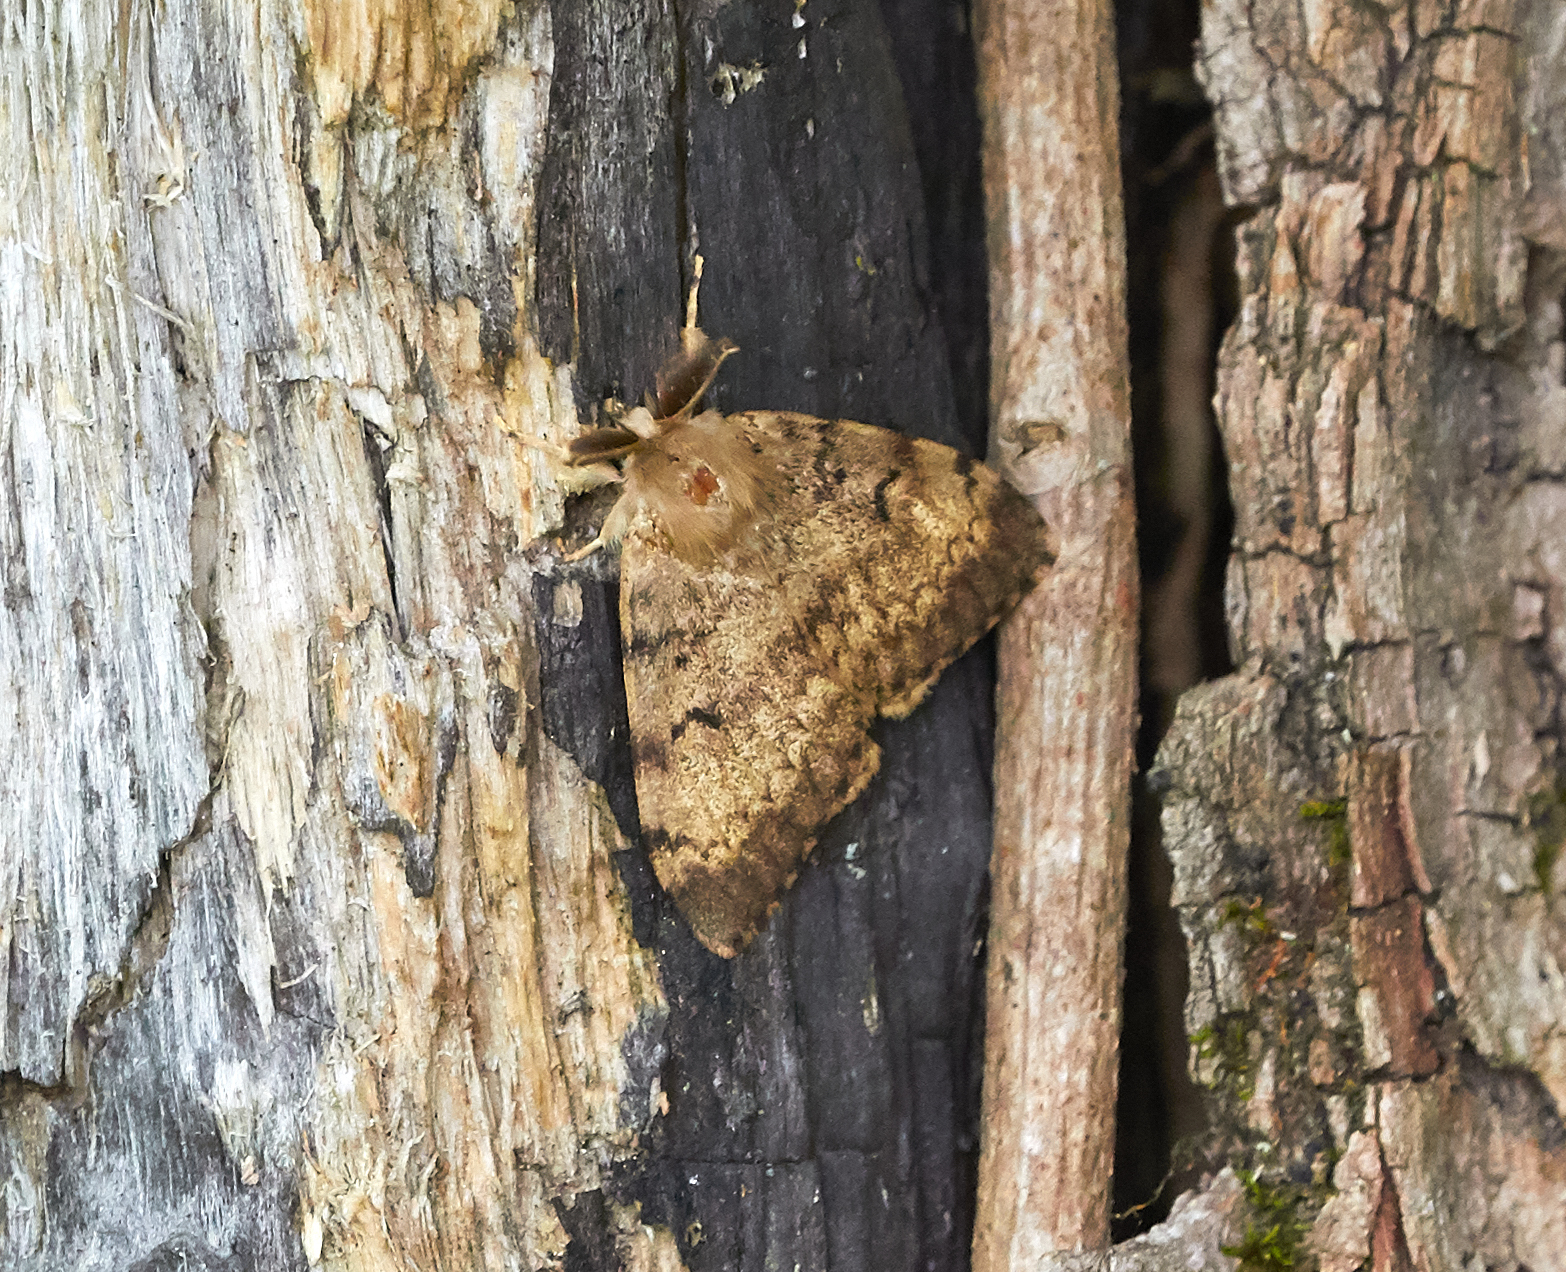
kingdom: Animalia
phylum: Arthropoda
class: Insecta
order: Lepidoptera
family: Erebidae
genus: Lymantria
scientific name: Lymantria dispar
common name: Gypsy moth
